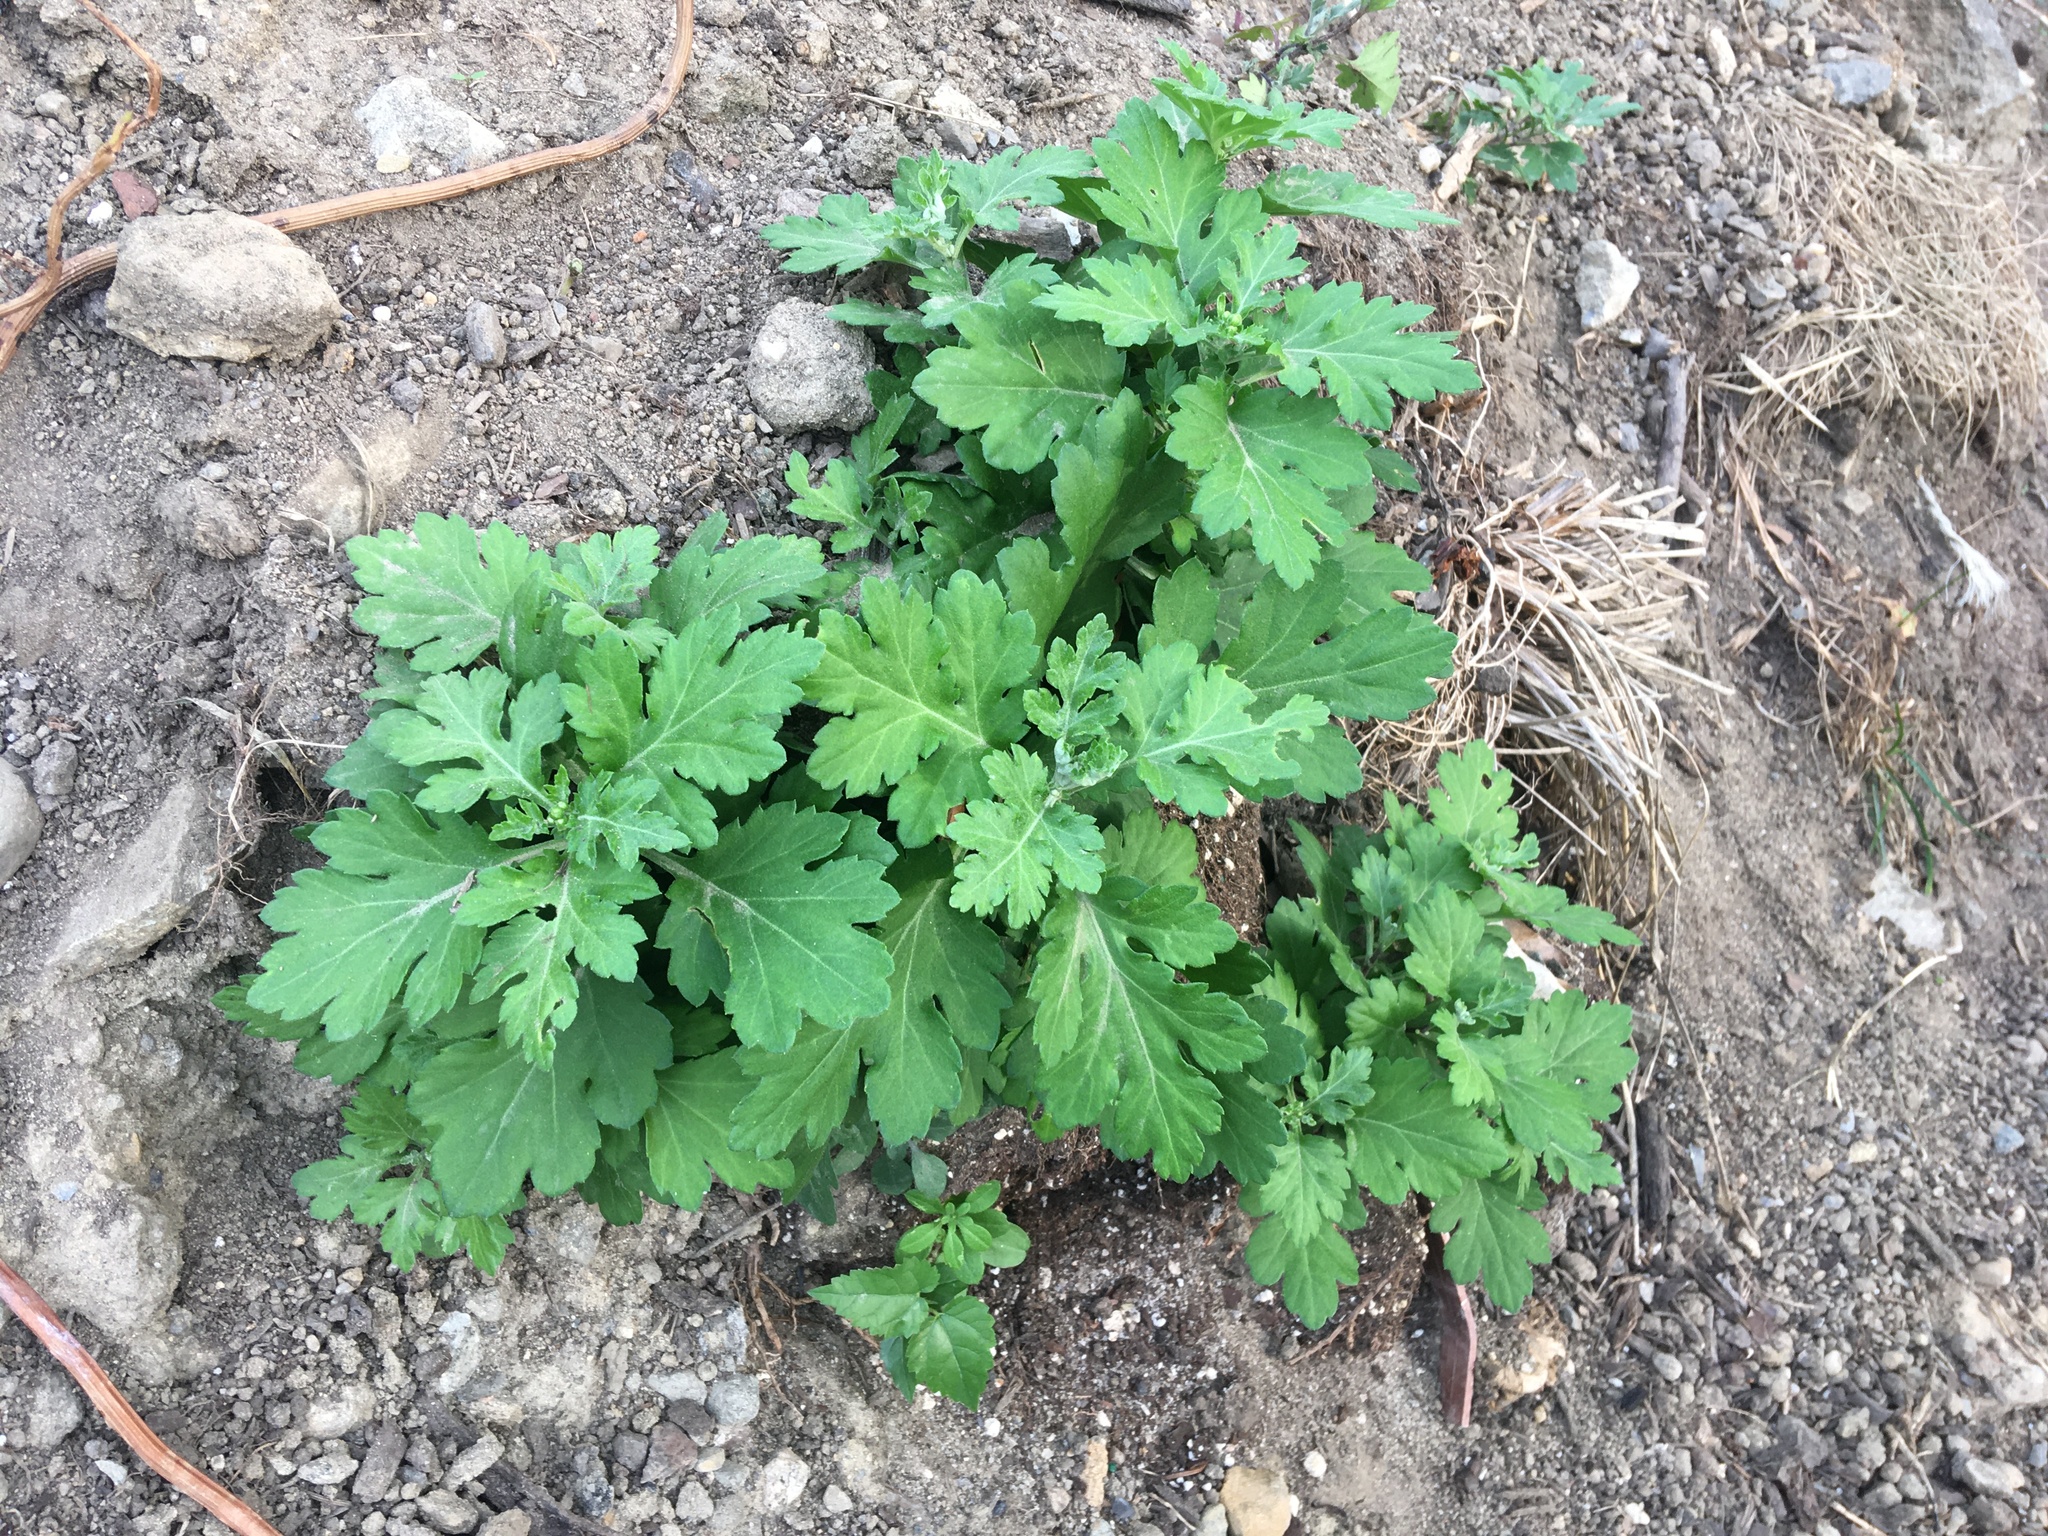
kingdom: Plantae
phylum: Tracheophyta
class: Magnoliopsida
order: Asterales
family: Asteraceae
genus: Artemisia
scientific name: Artemisia vulgaris
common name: Mugwort
